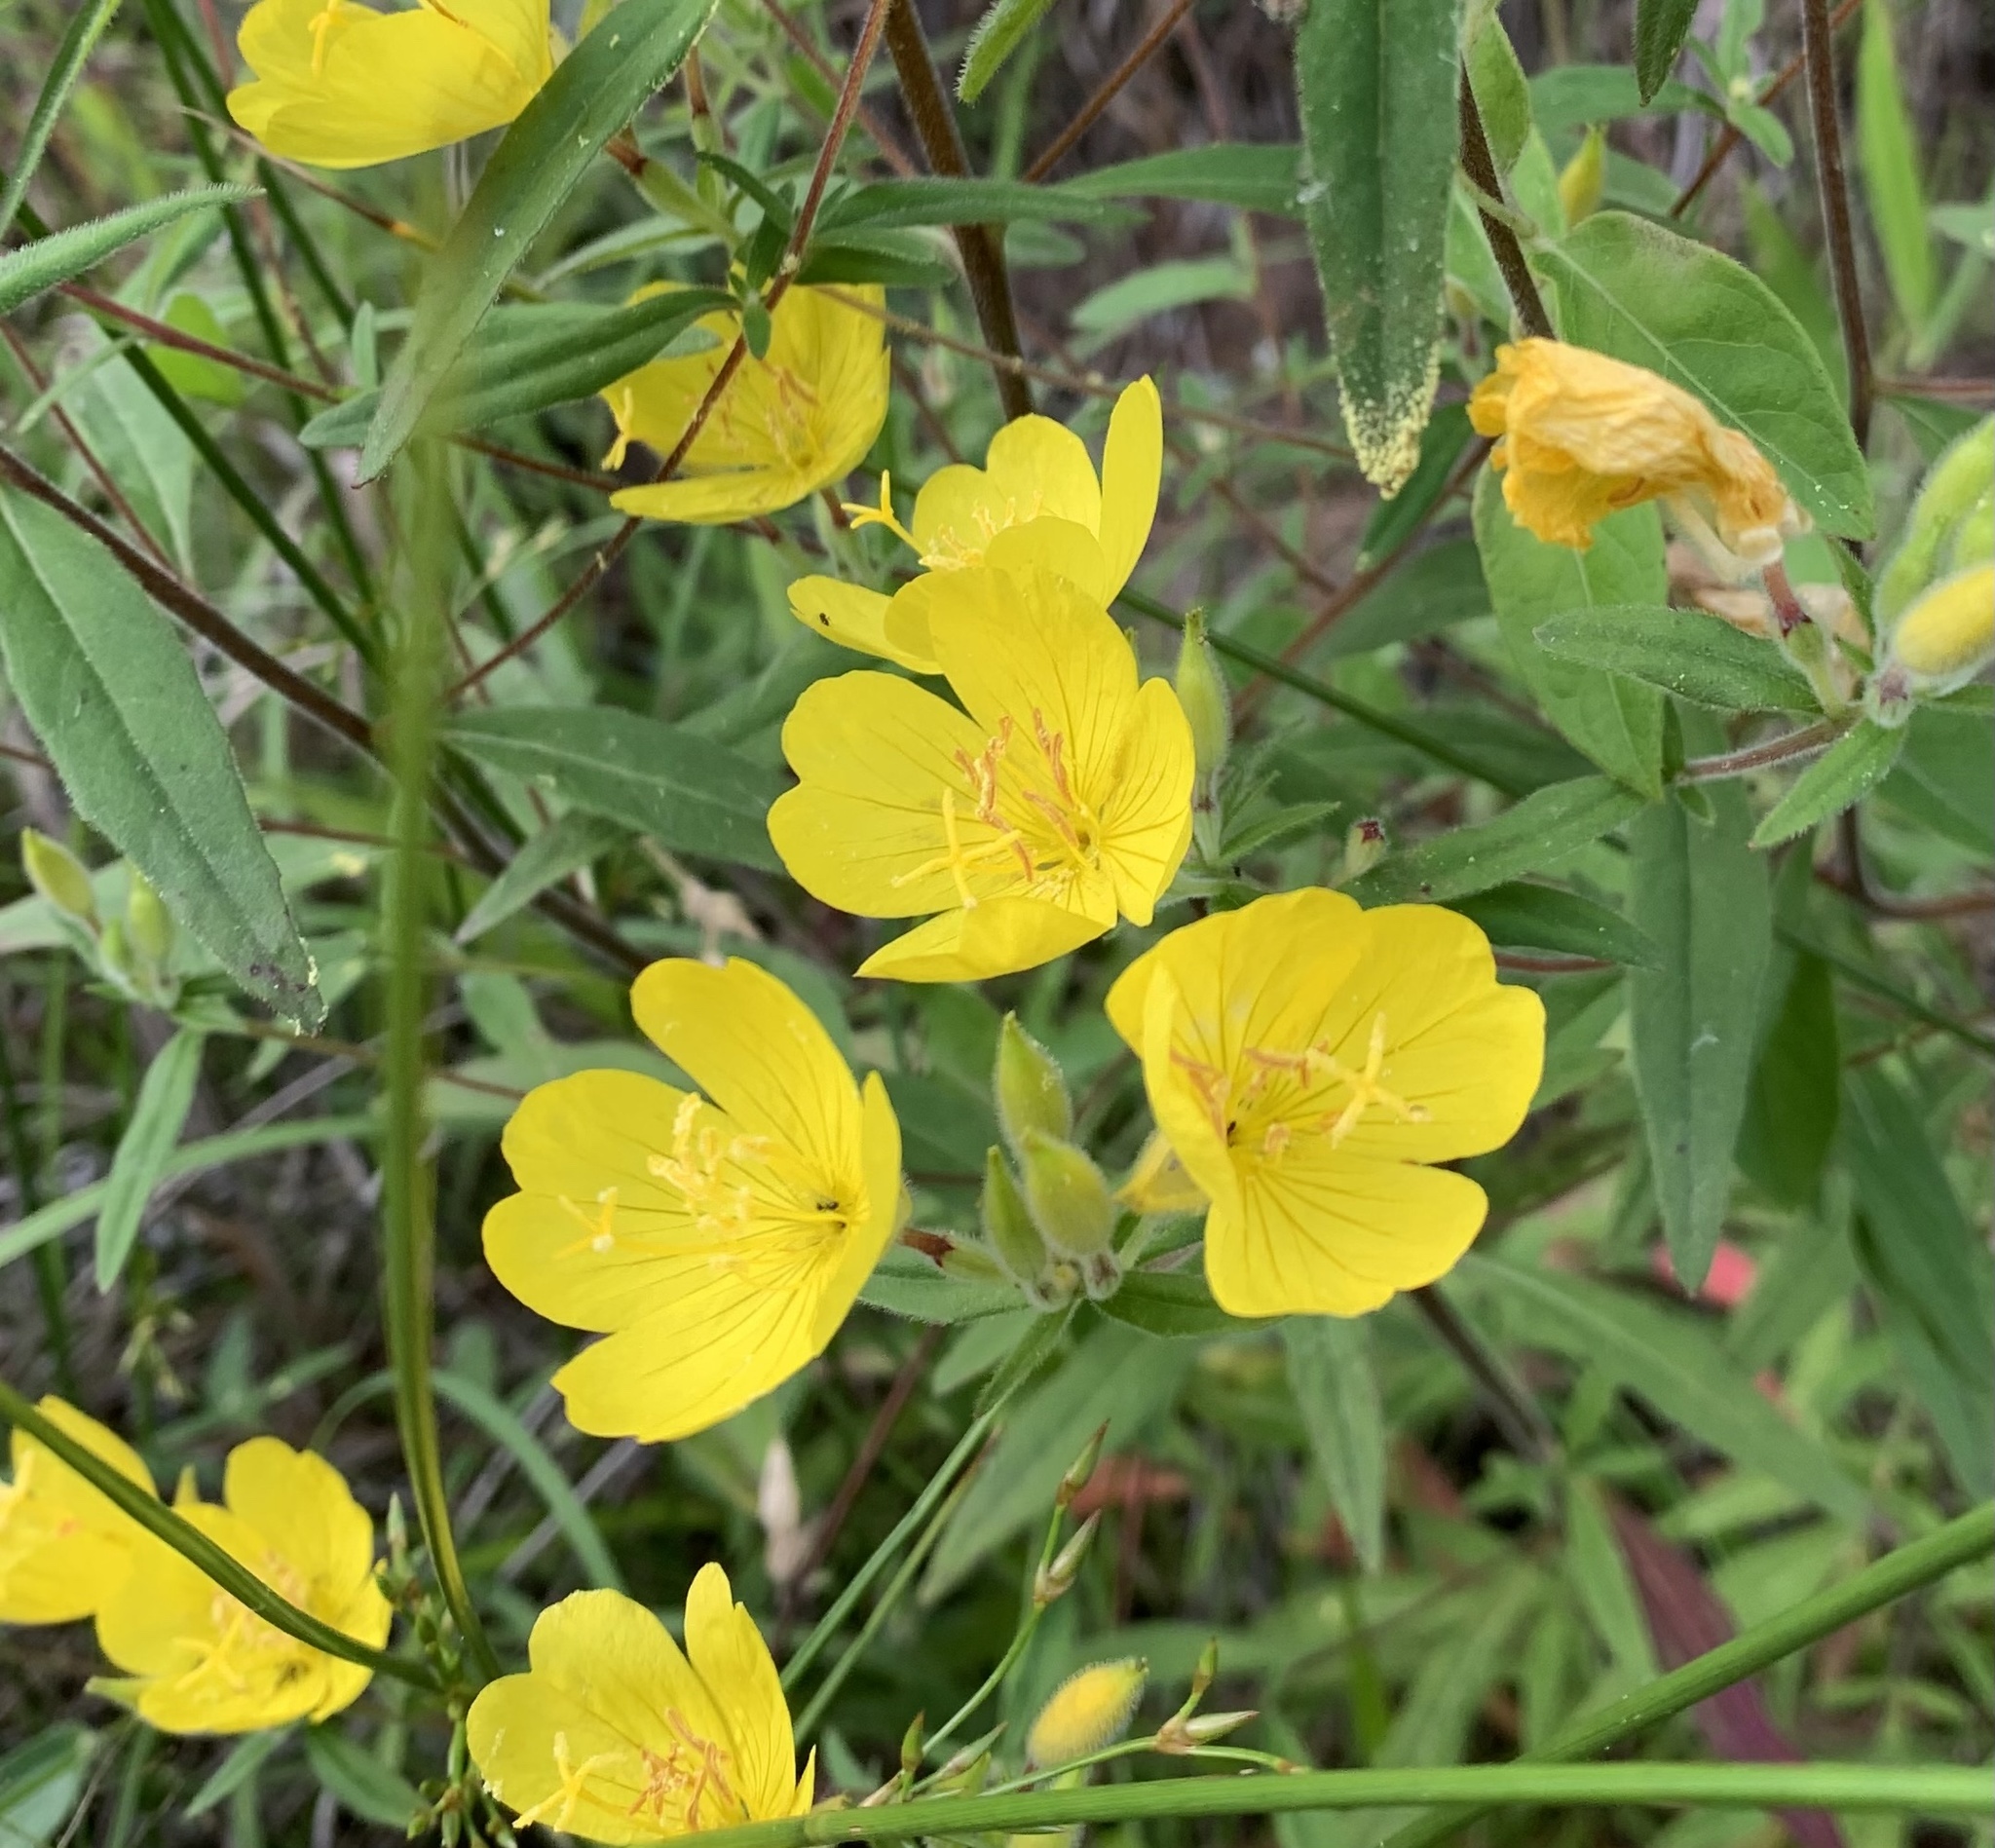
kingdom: Plantae
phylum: Tracheophyta
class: Magnoliopsida
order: Myrtales
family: Onagraceae
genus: Oenothera
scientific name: Oenothera fruticosa
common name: Southern sundrops
